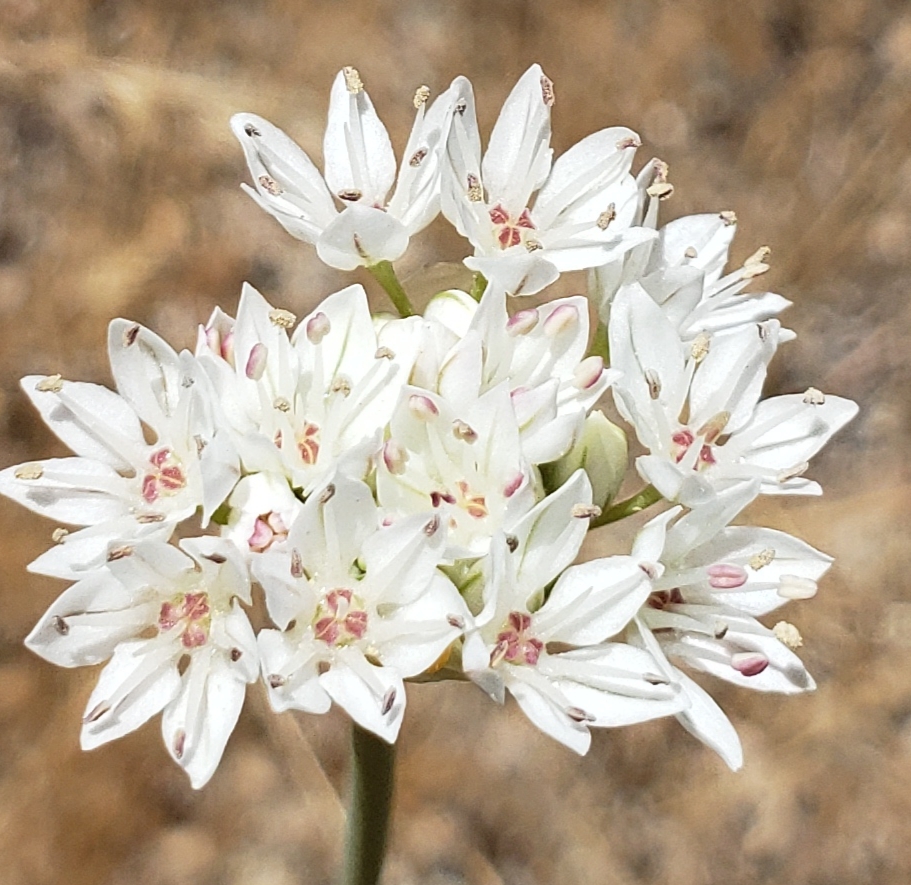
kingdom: Plantae
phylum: Tracheophyta
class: Liliopsida
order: Asparagales
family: Amaryllidaceae
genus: Allium
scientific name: Allium lacunosum
